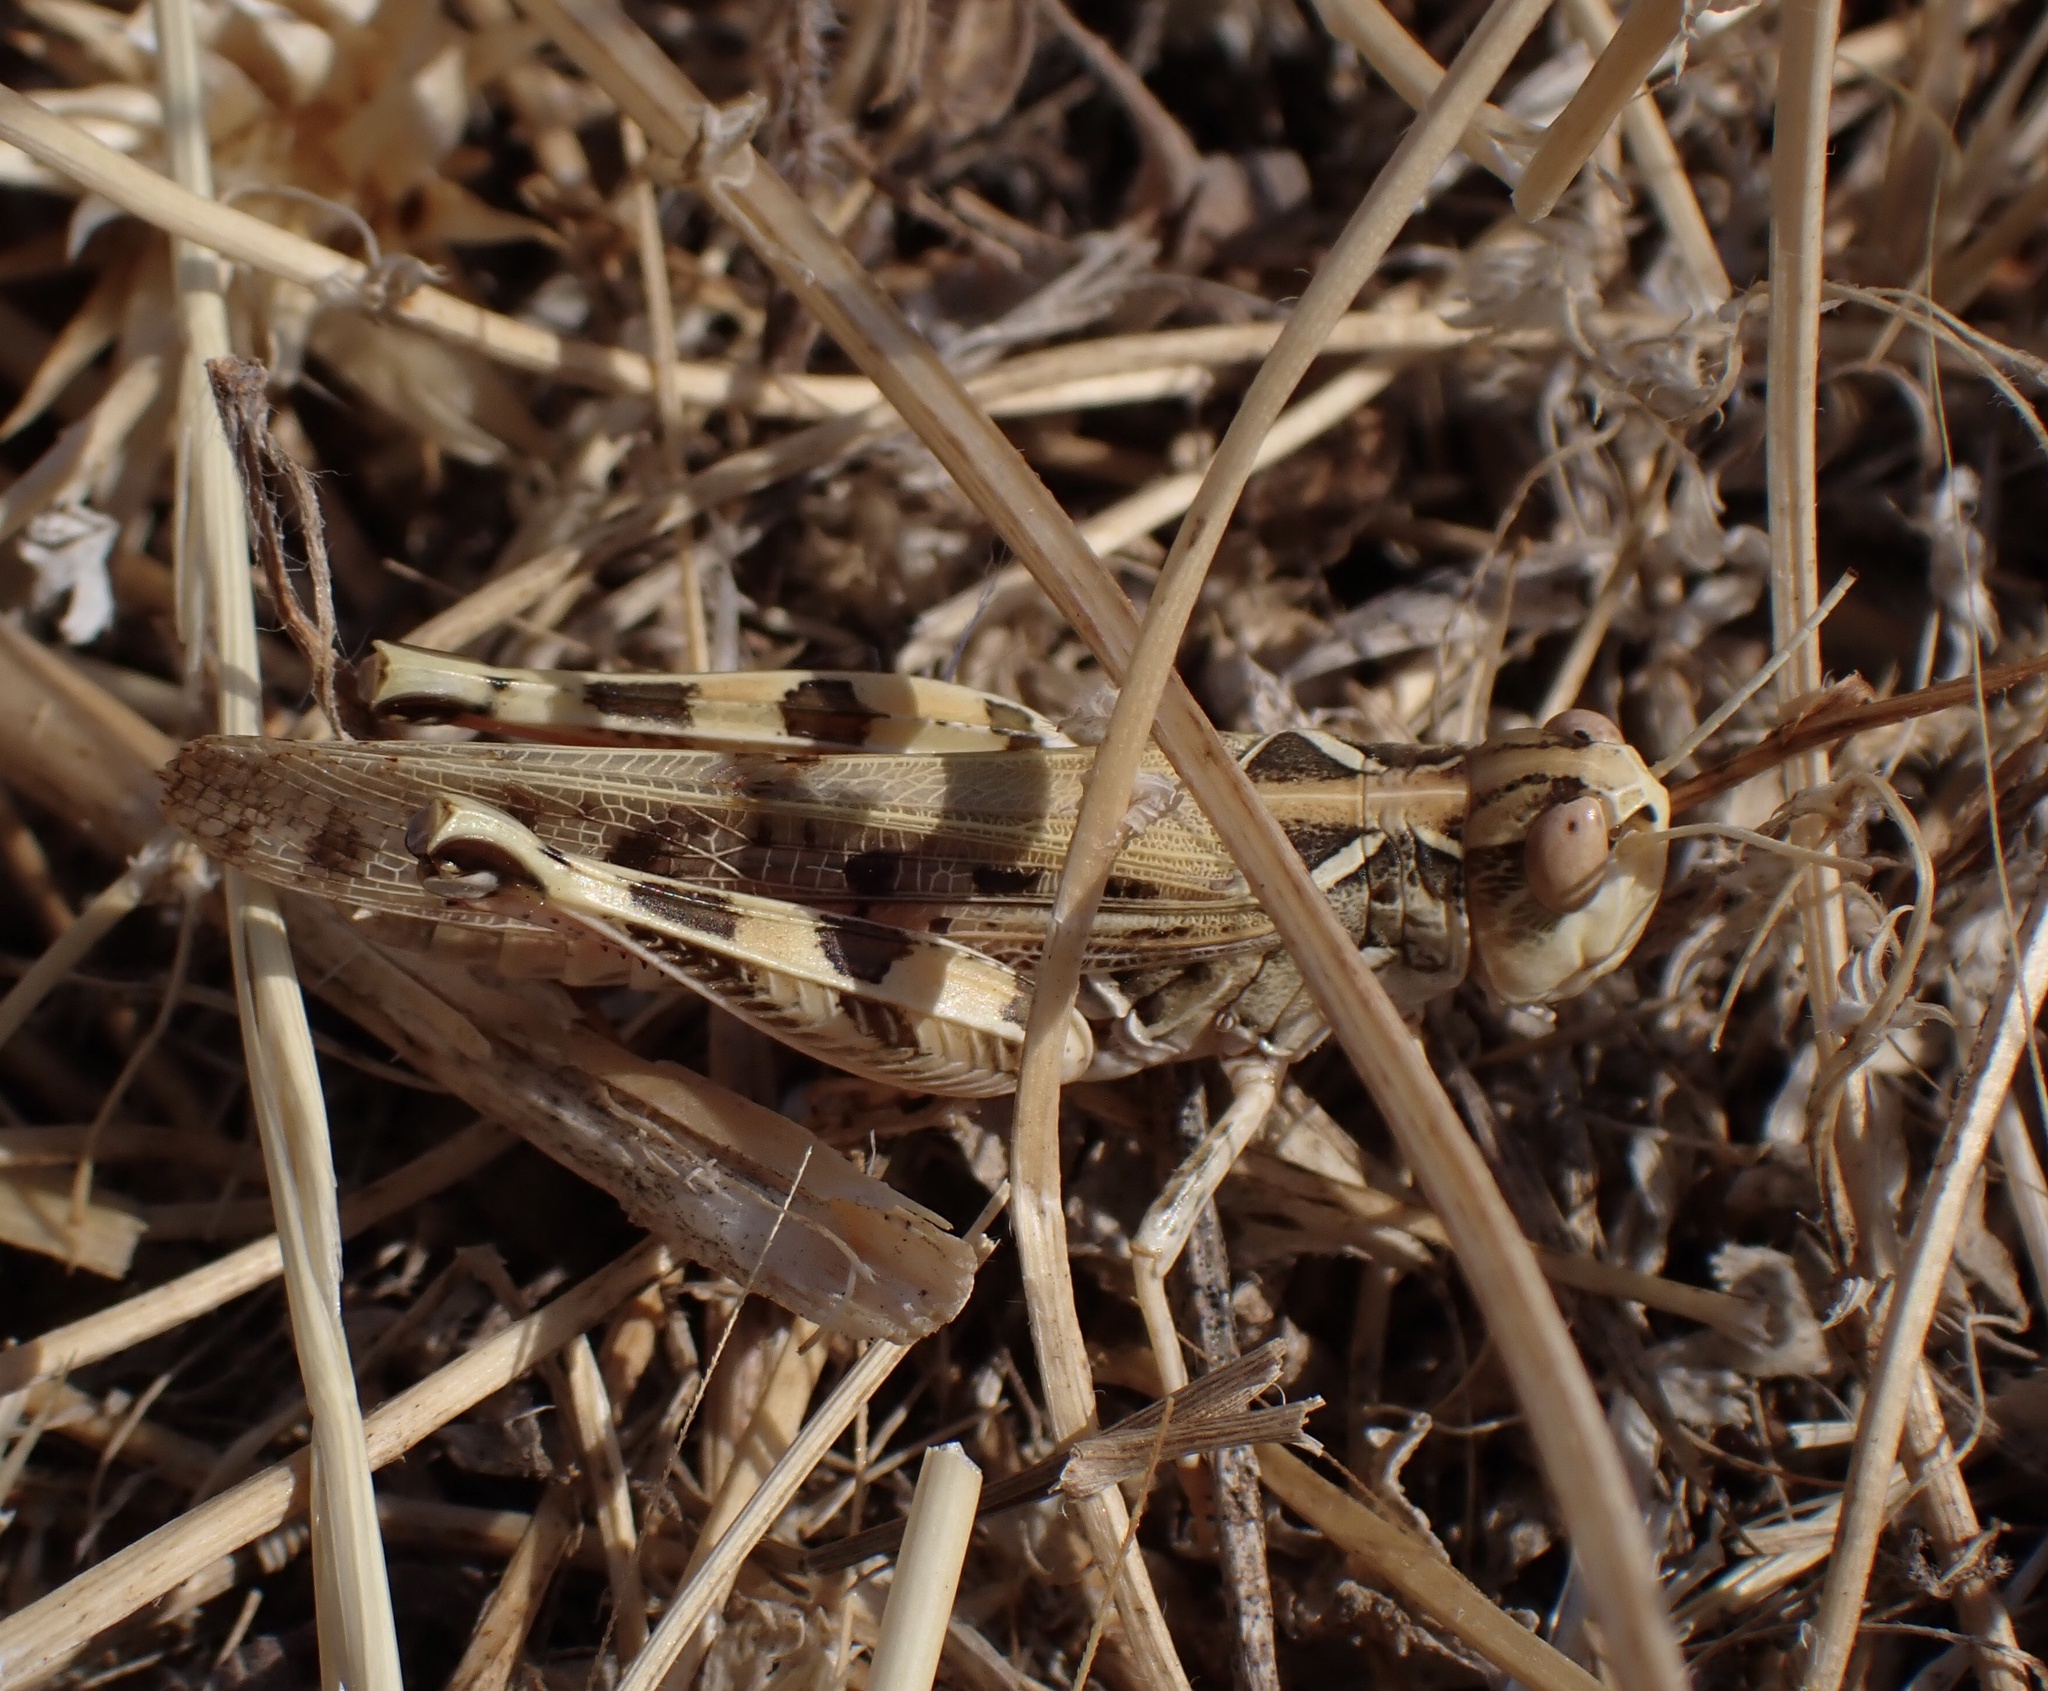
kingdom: Animalia
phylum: Arthropoda
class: Insecta
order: Orthoptera
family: Acrididae
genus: Dociostaurus
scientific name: Dociostaurus maroccanus
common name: Moroccan locust
